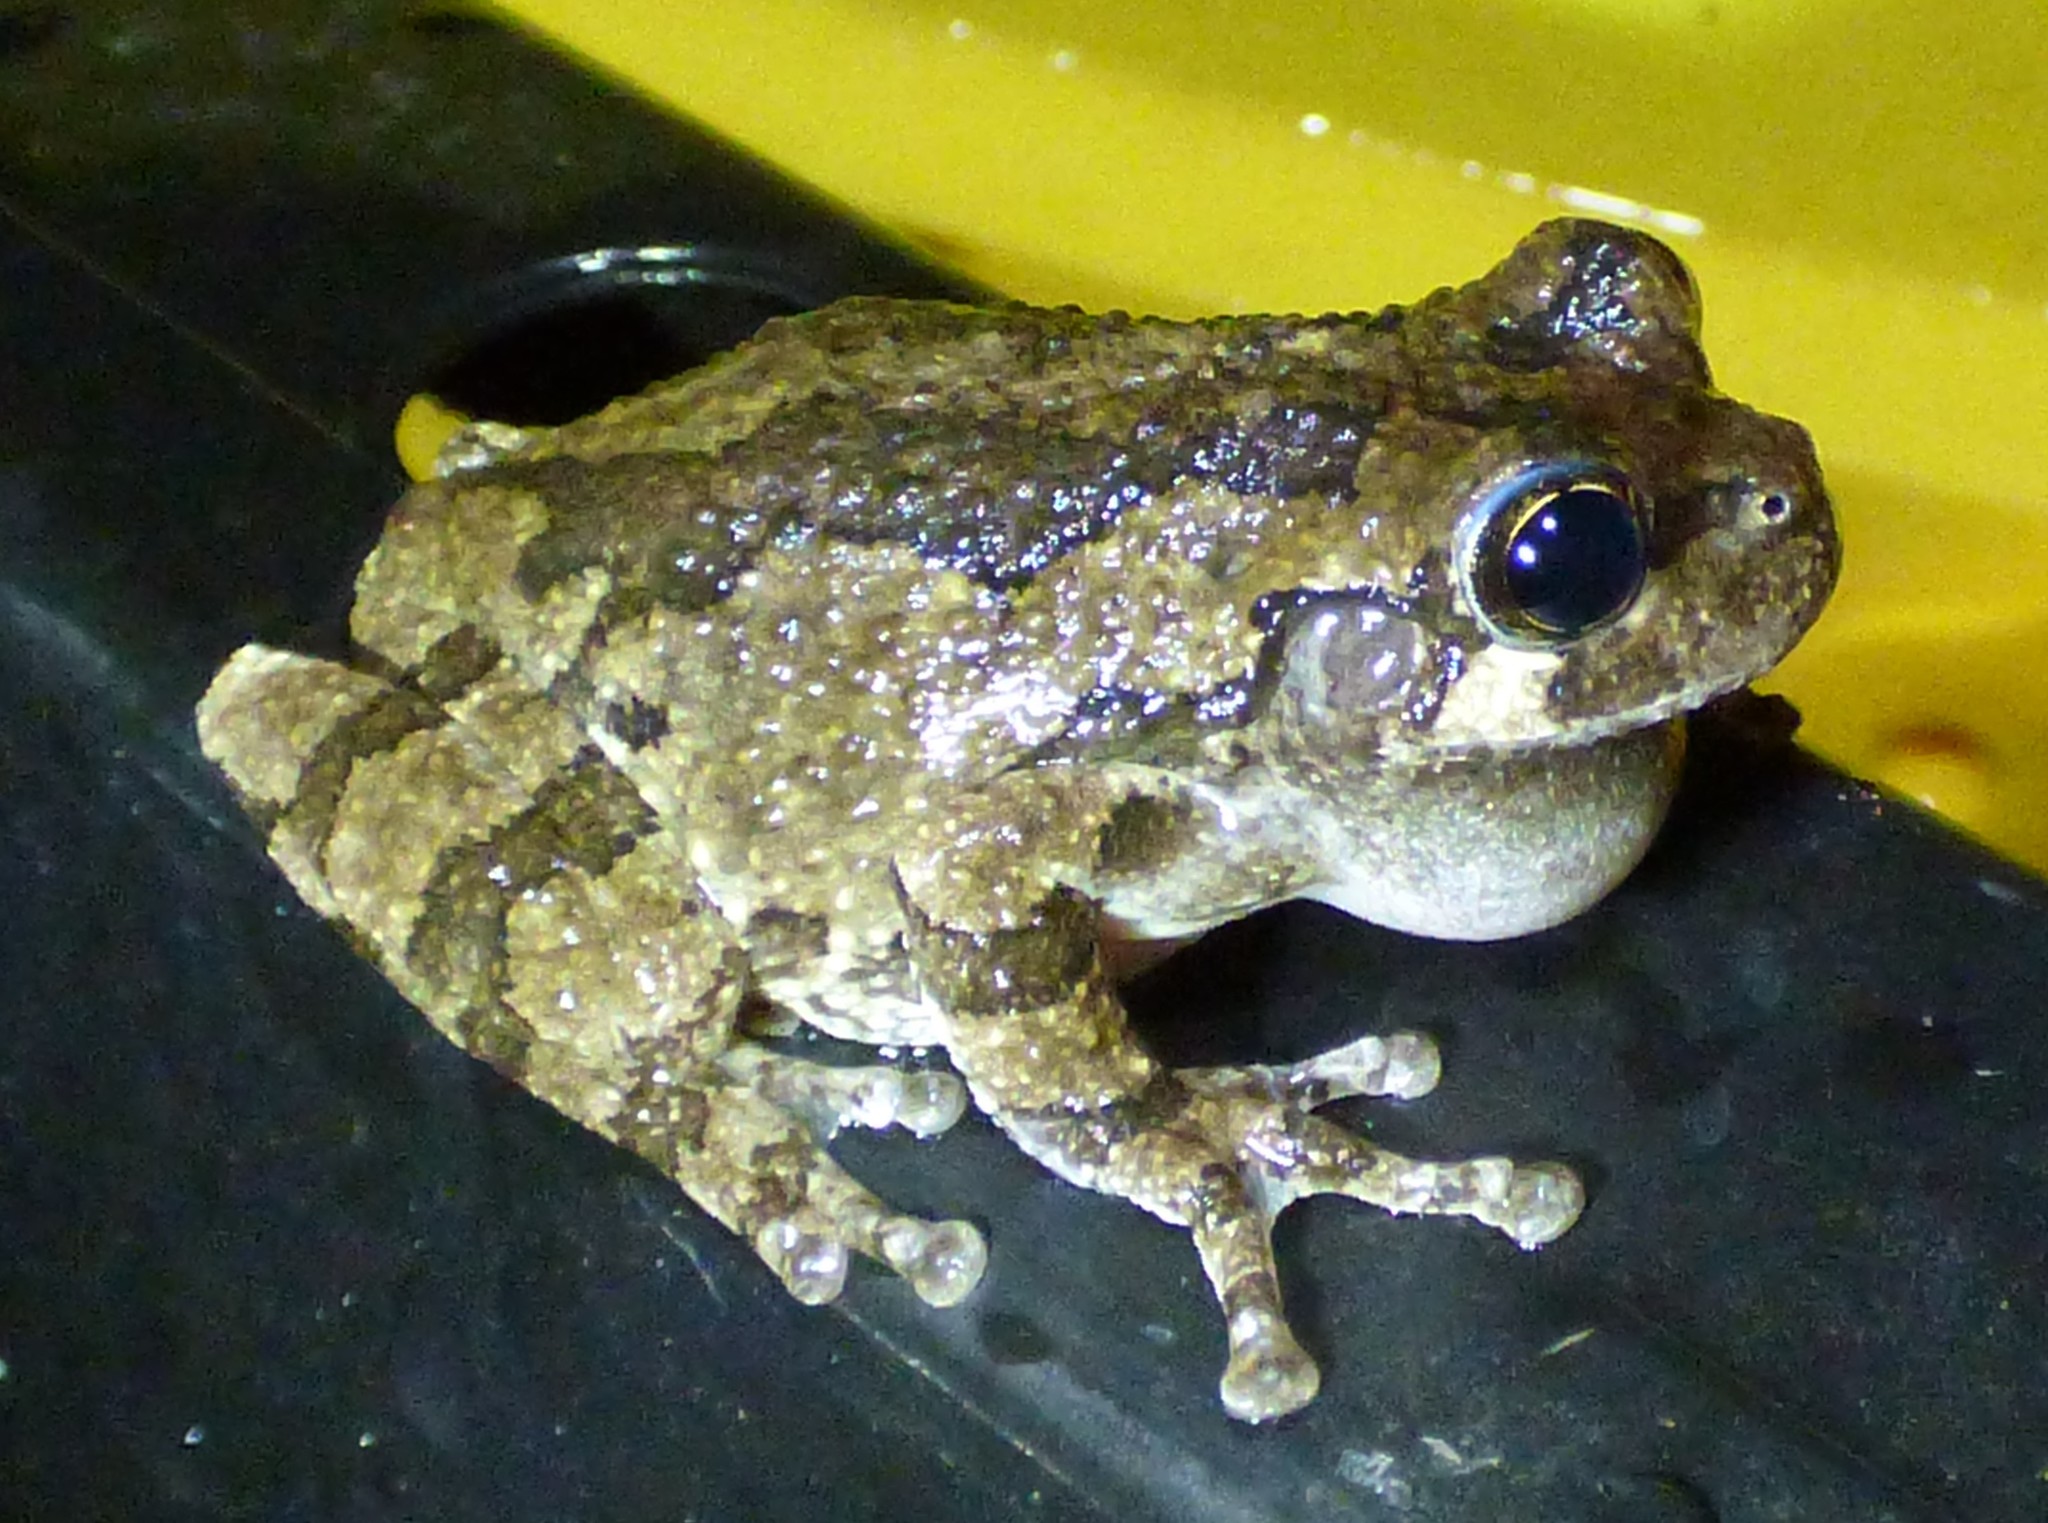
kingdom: Animalia
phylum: Chordata
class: Amphibia
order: Anura
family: Hylidae
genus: Dryophytes
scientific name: Dryophytes chrysoscelis
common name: Cope's gray treefrog
